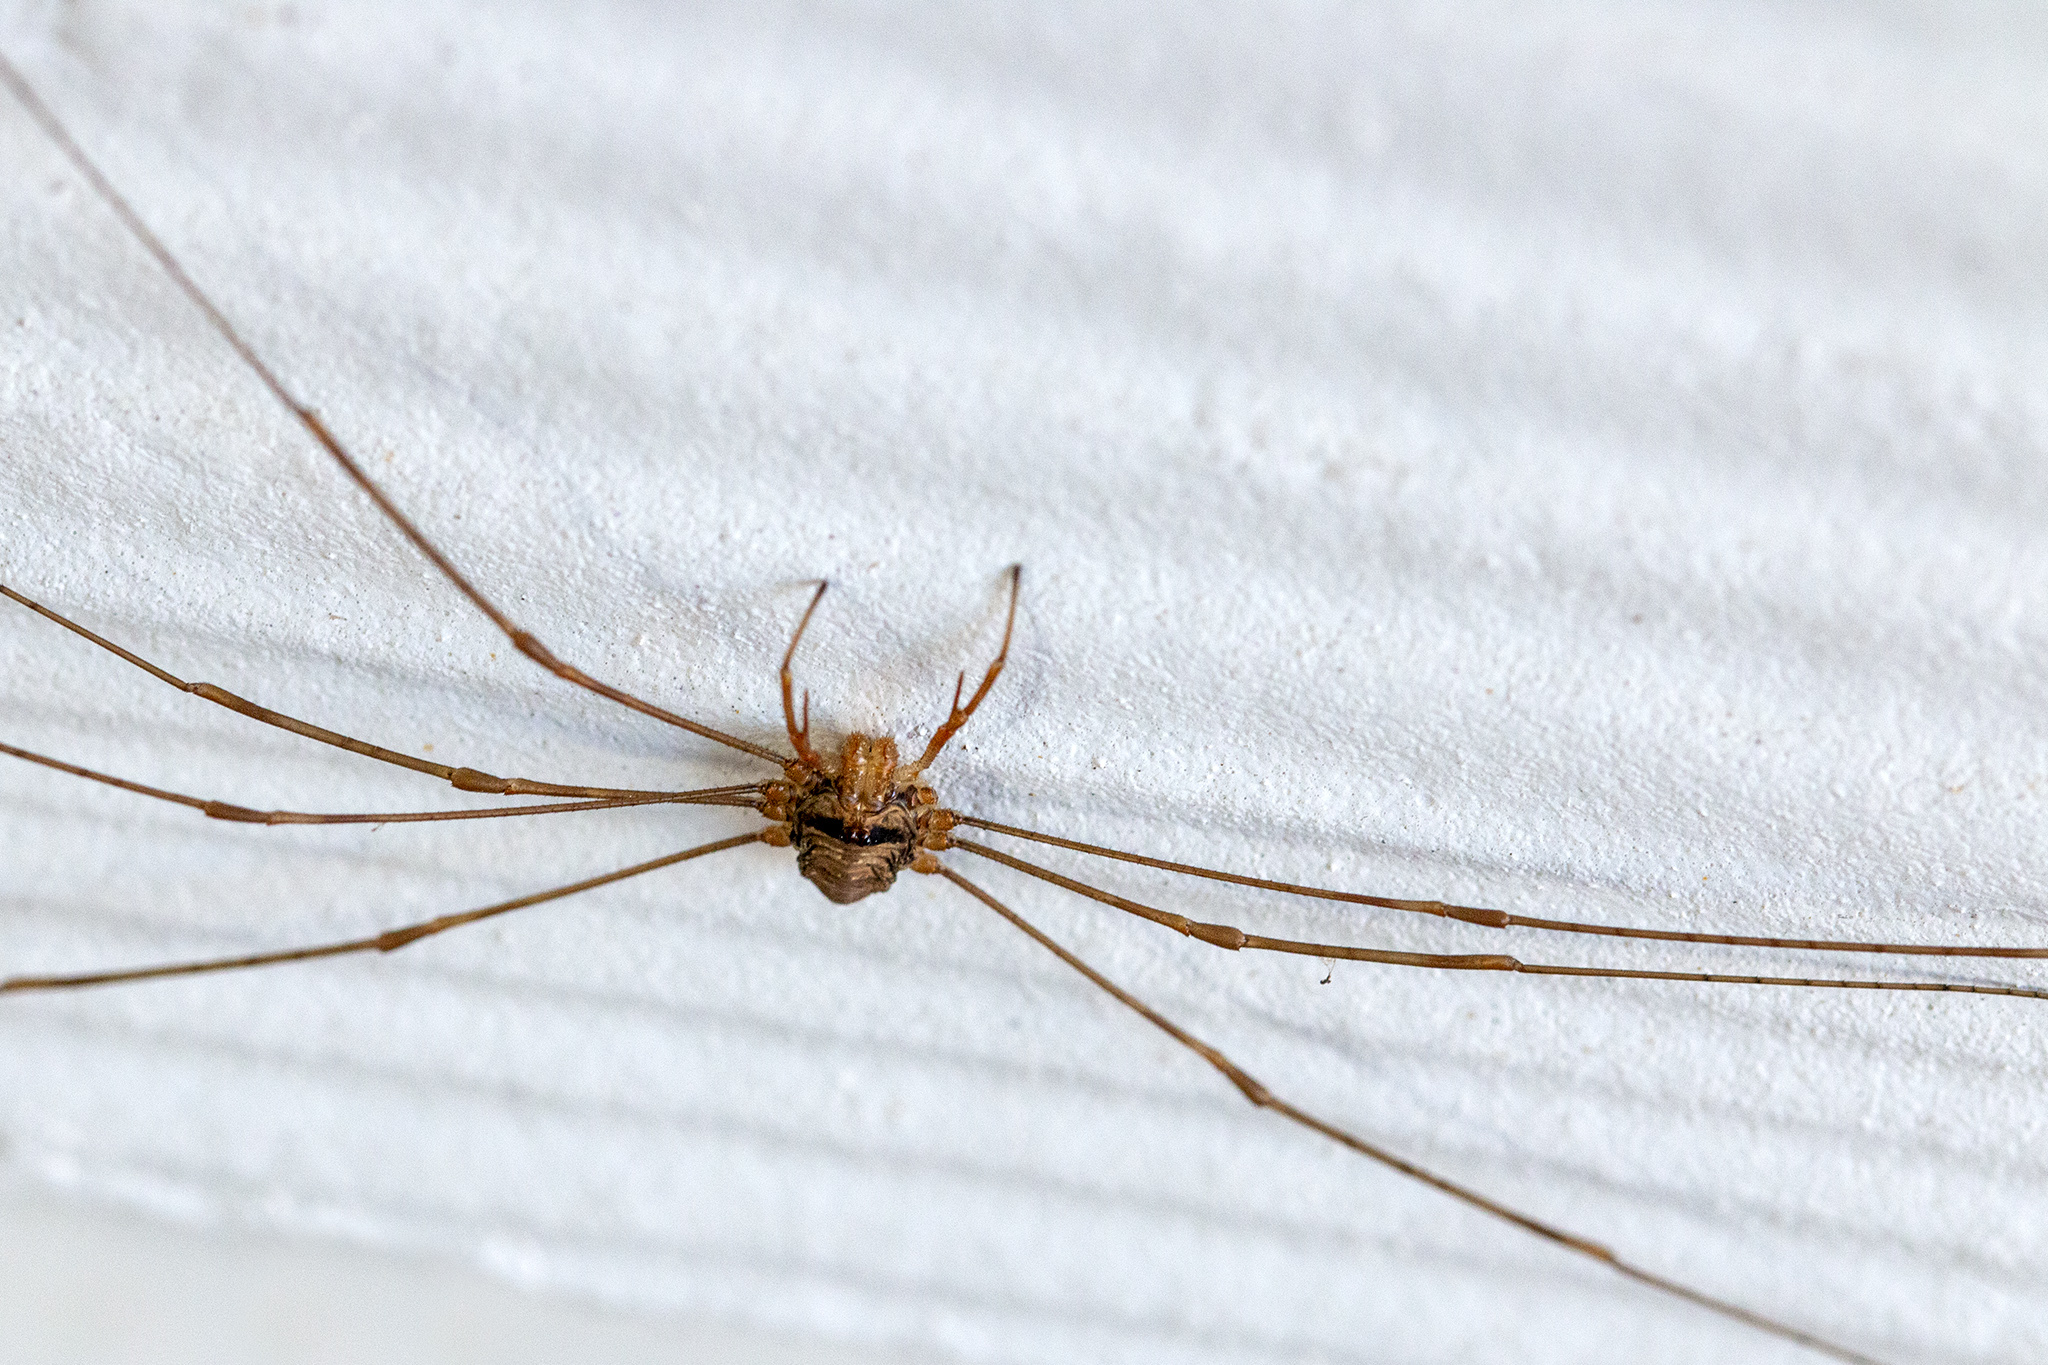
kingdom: Animalia
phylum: Arthropoda
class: Arachnida
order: Opiliones
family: Phalangiidae
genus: Dicranopalpus
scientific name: Dicranopalpus ramosus
